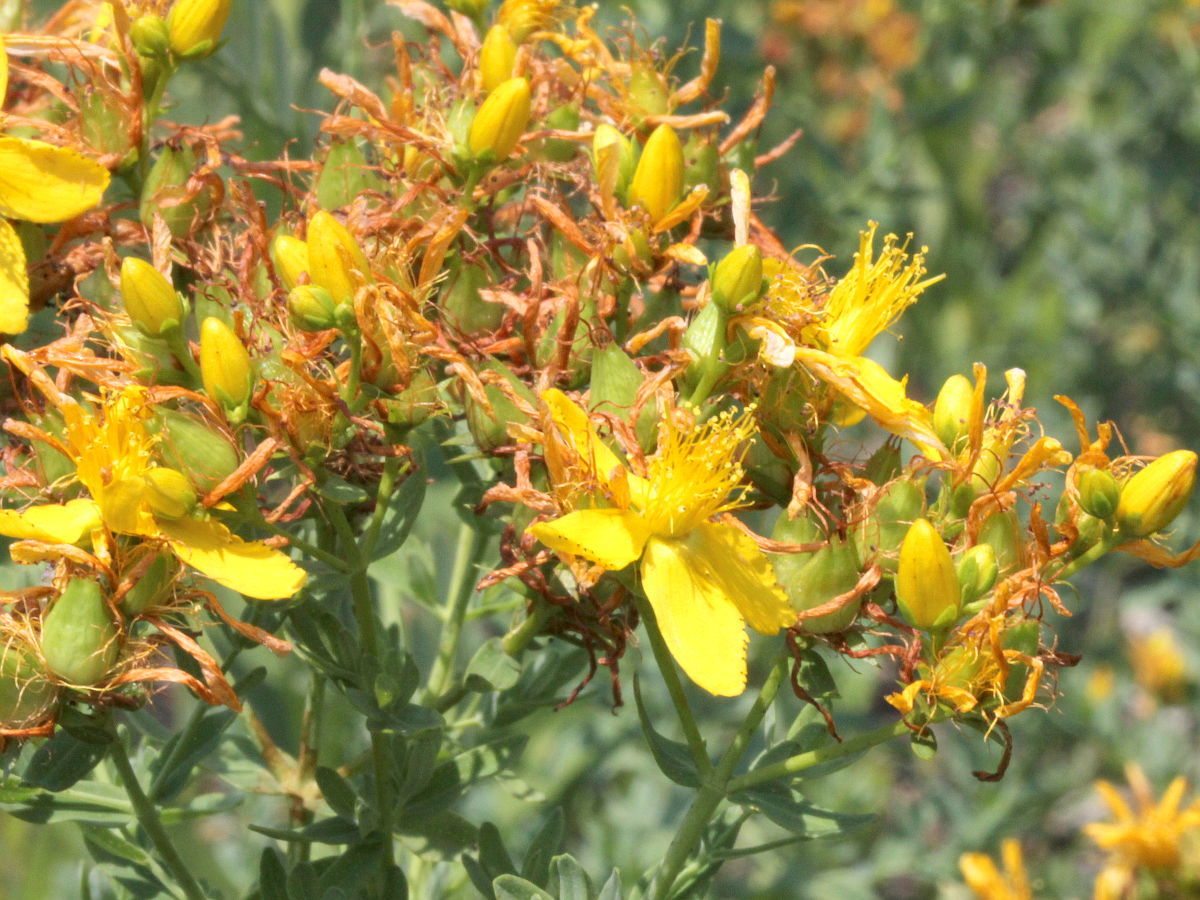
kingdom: Plantae
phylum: Tracheophyta
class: Magnoliopsida
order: Malpighiales
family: Hypericaceae
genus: Hypericum
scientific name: Hypericum perforatum
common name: Common st. johnswort
